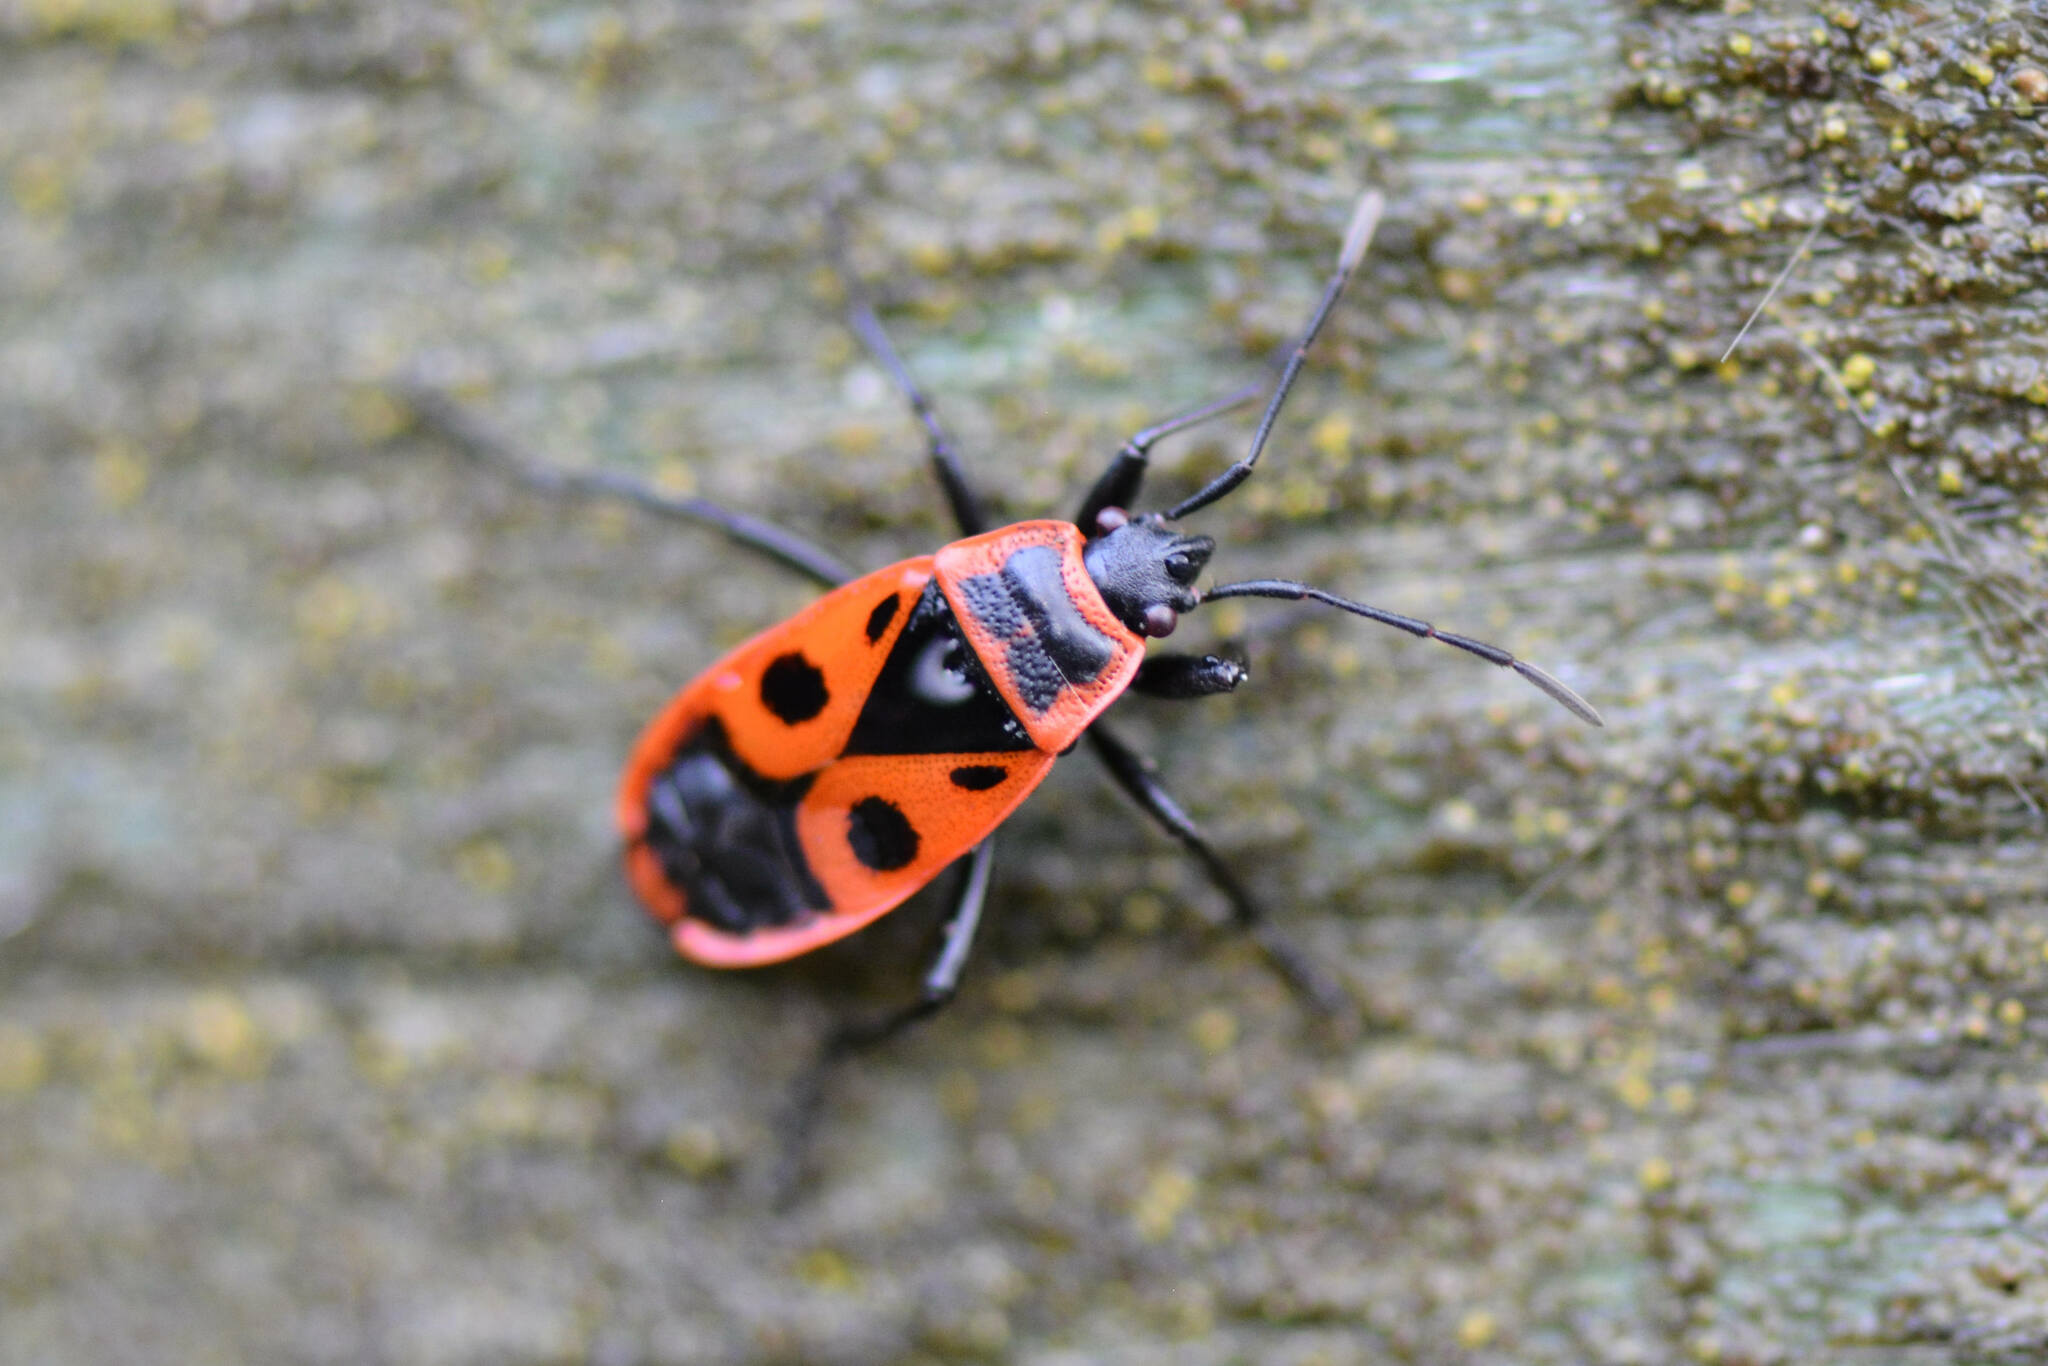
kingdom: Animalia
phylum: Arthropoda
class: Insecta
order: Hemiptera
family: Pyrrhocoridae
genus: Pyrrhocoris
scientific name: Pyrrhocoris apterus
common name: Firebug
